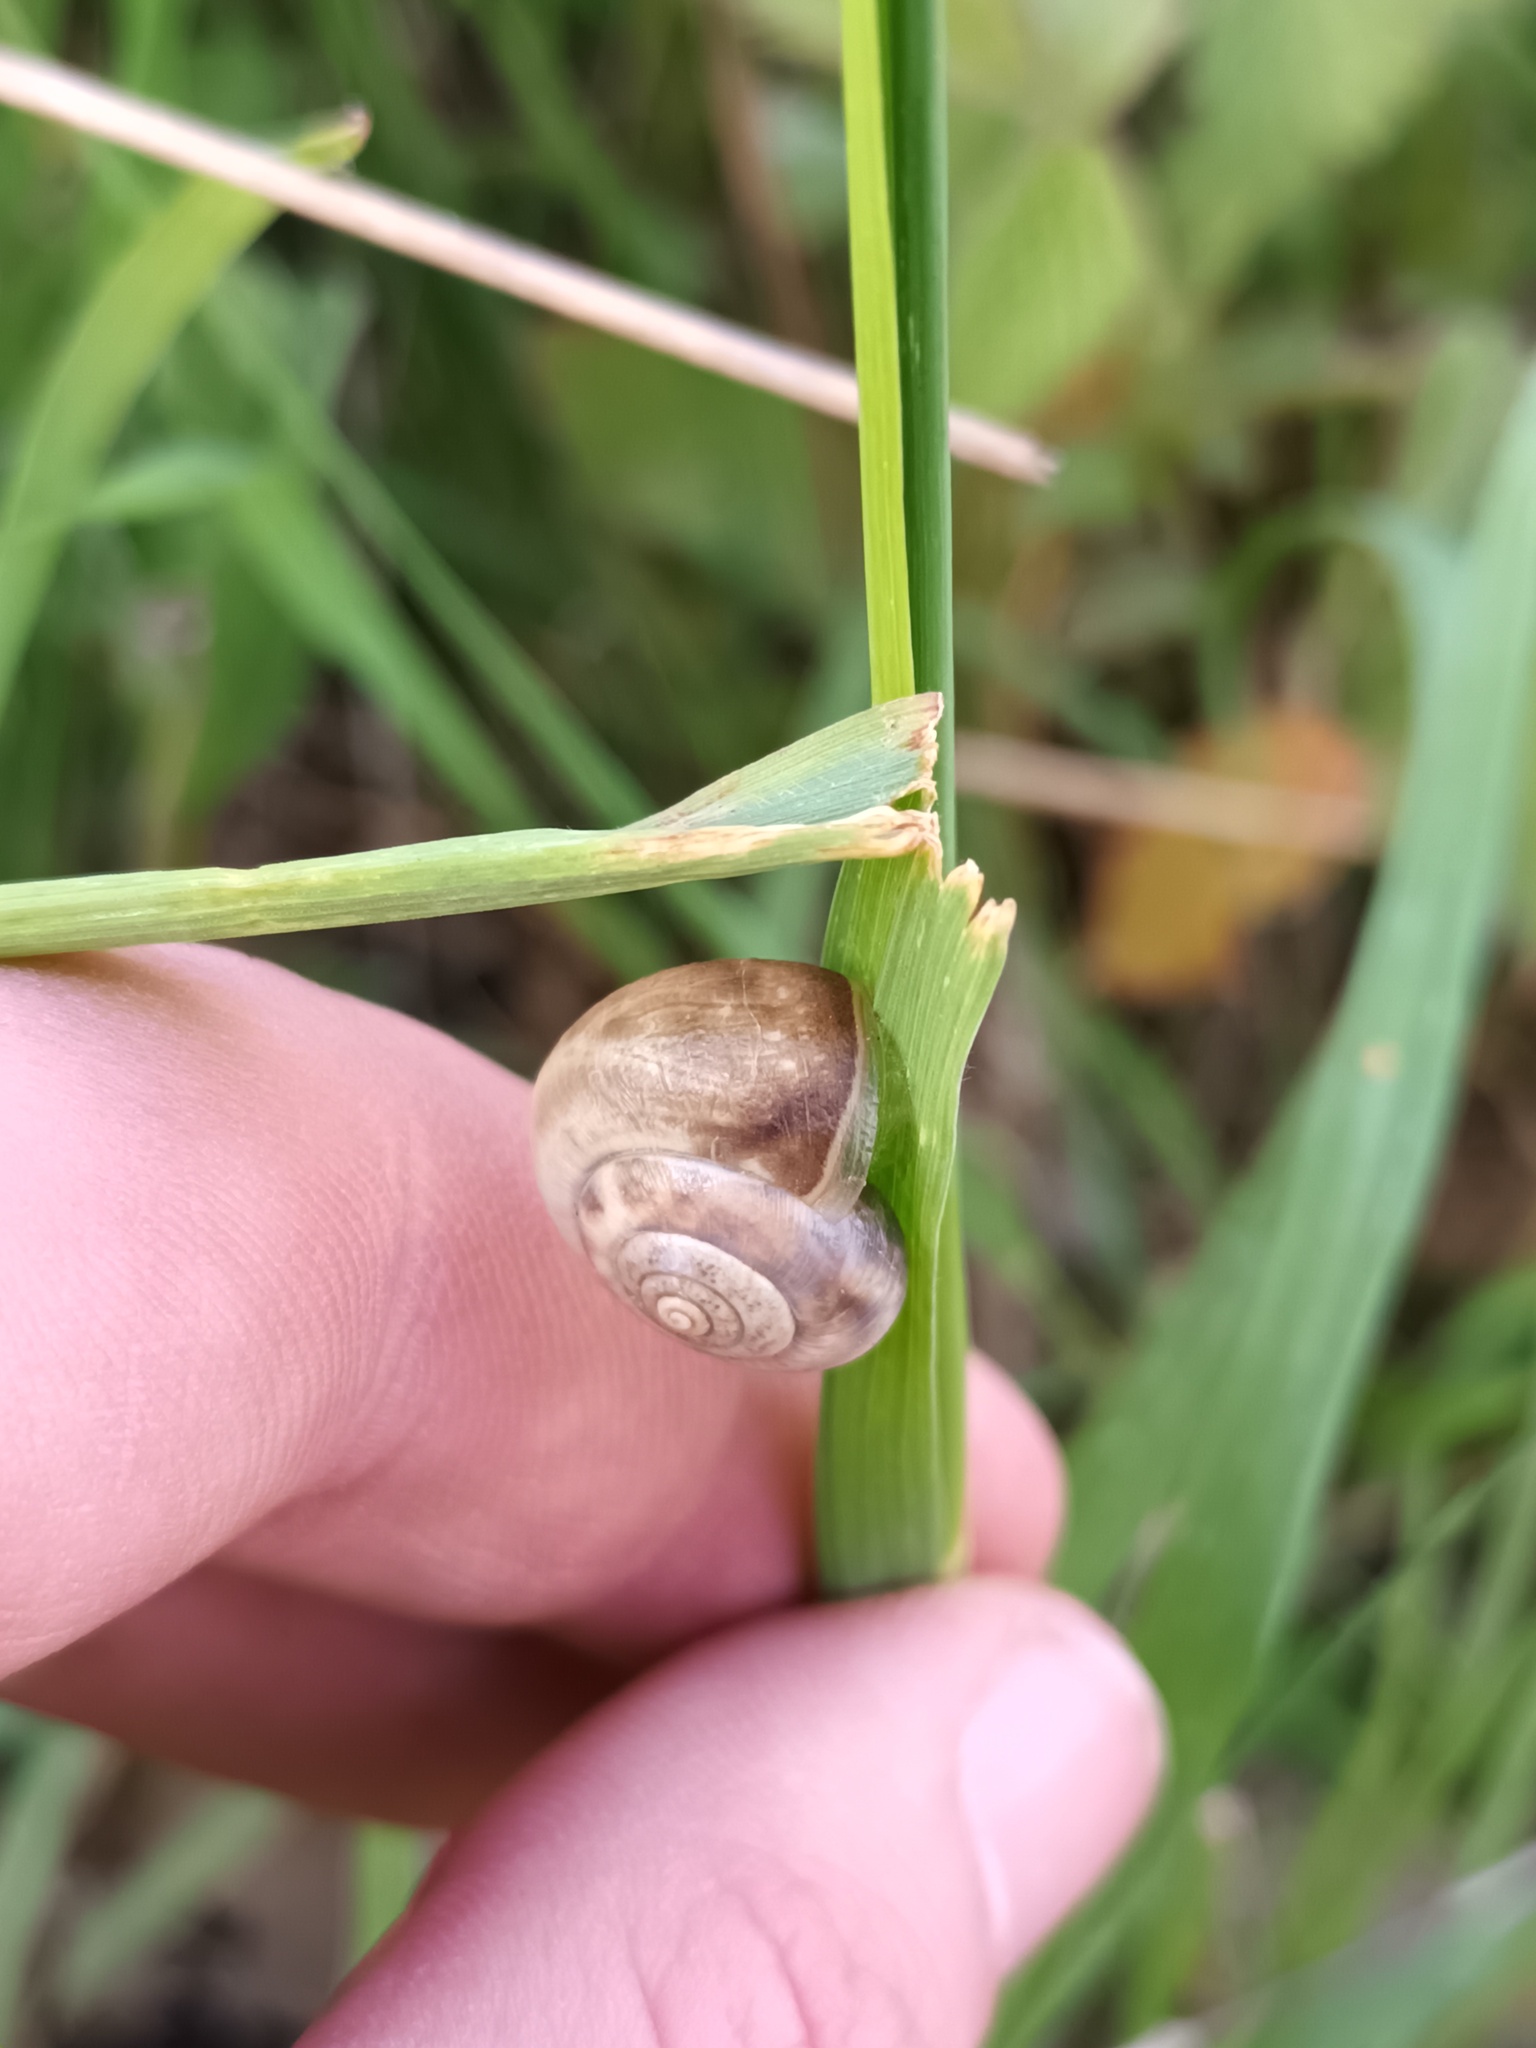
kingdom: Animalia
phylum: Mollusca
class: Gastropoda
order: Stylommatophora
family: Hygromiidae
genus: Monacha
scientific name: Monacha cantiana
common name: Kentish snail
